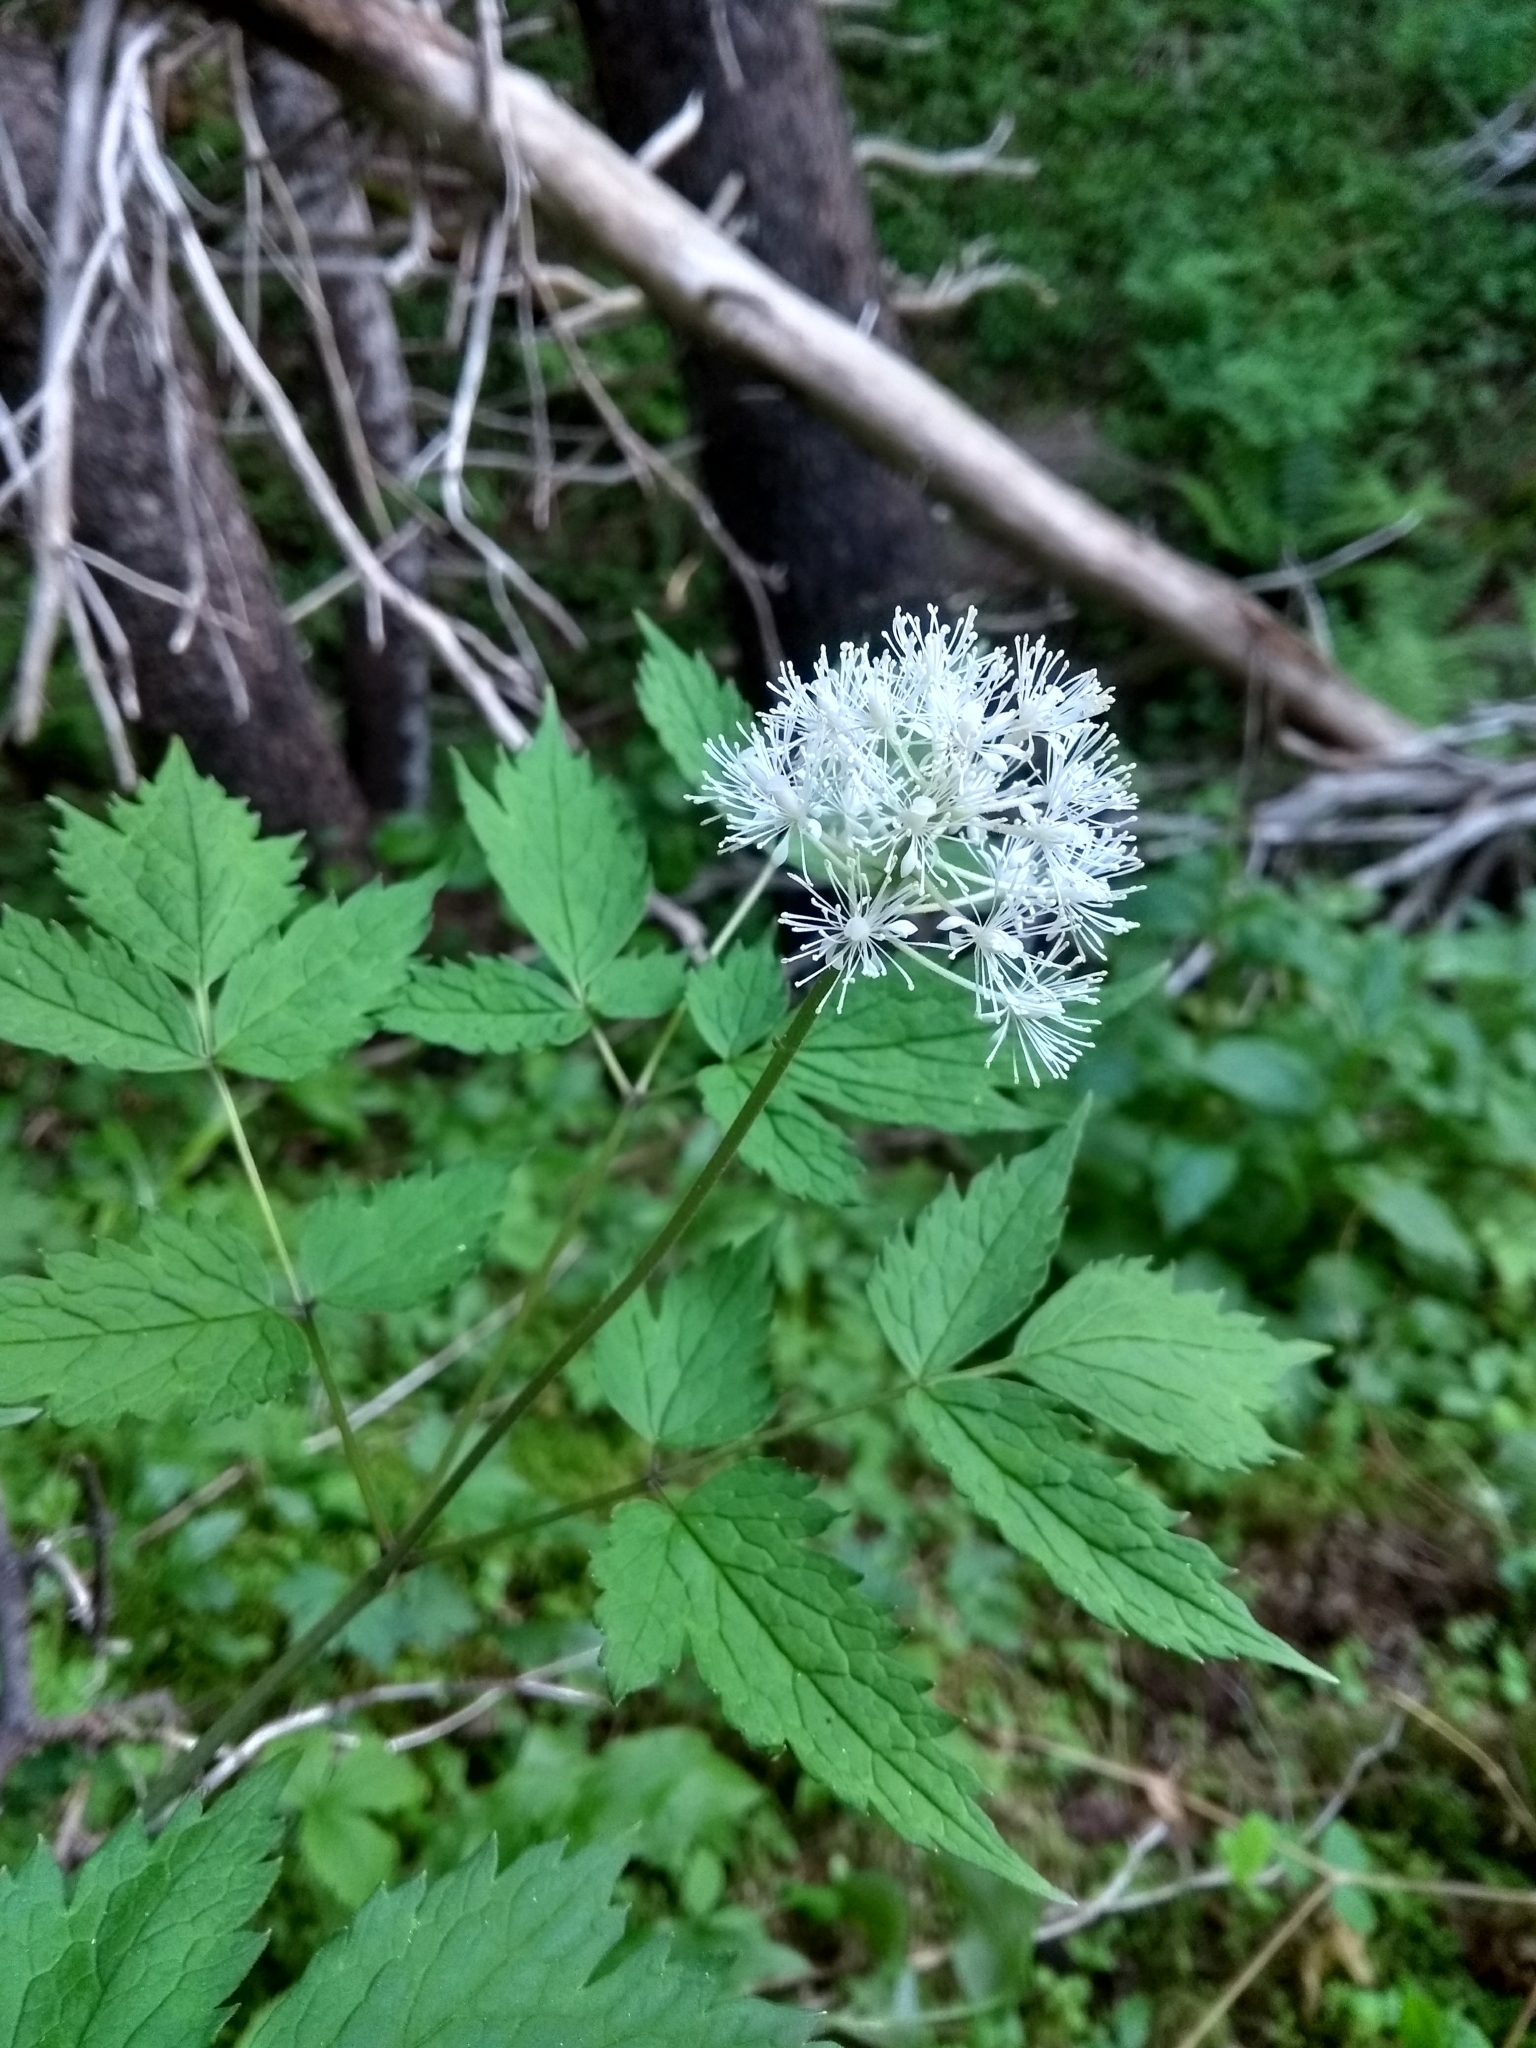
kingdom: Plantae
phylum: Tracheophyta
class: Magnoliopsida
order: Ranunculales
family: Ranunculaceae
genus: Actaea
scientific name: Actaea rubra
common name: Red baneberry
